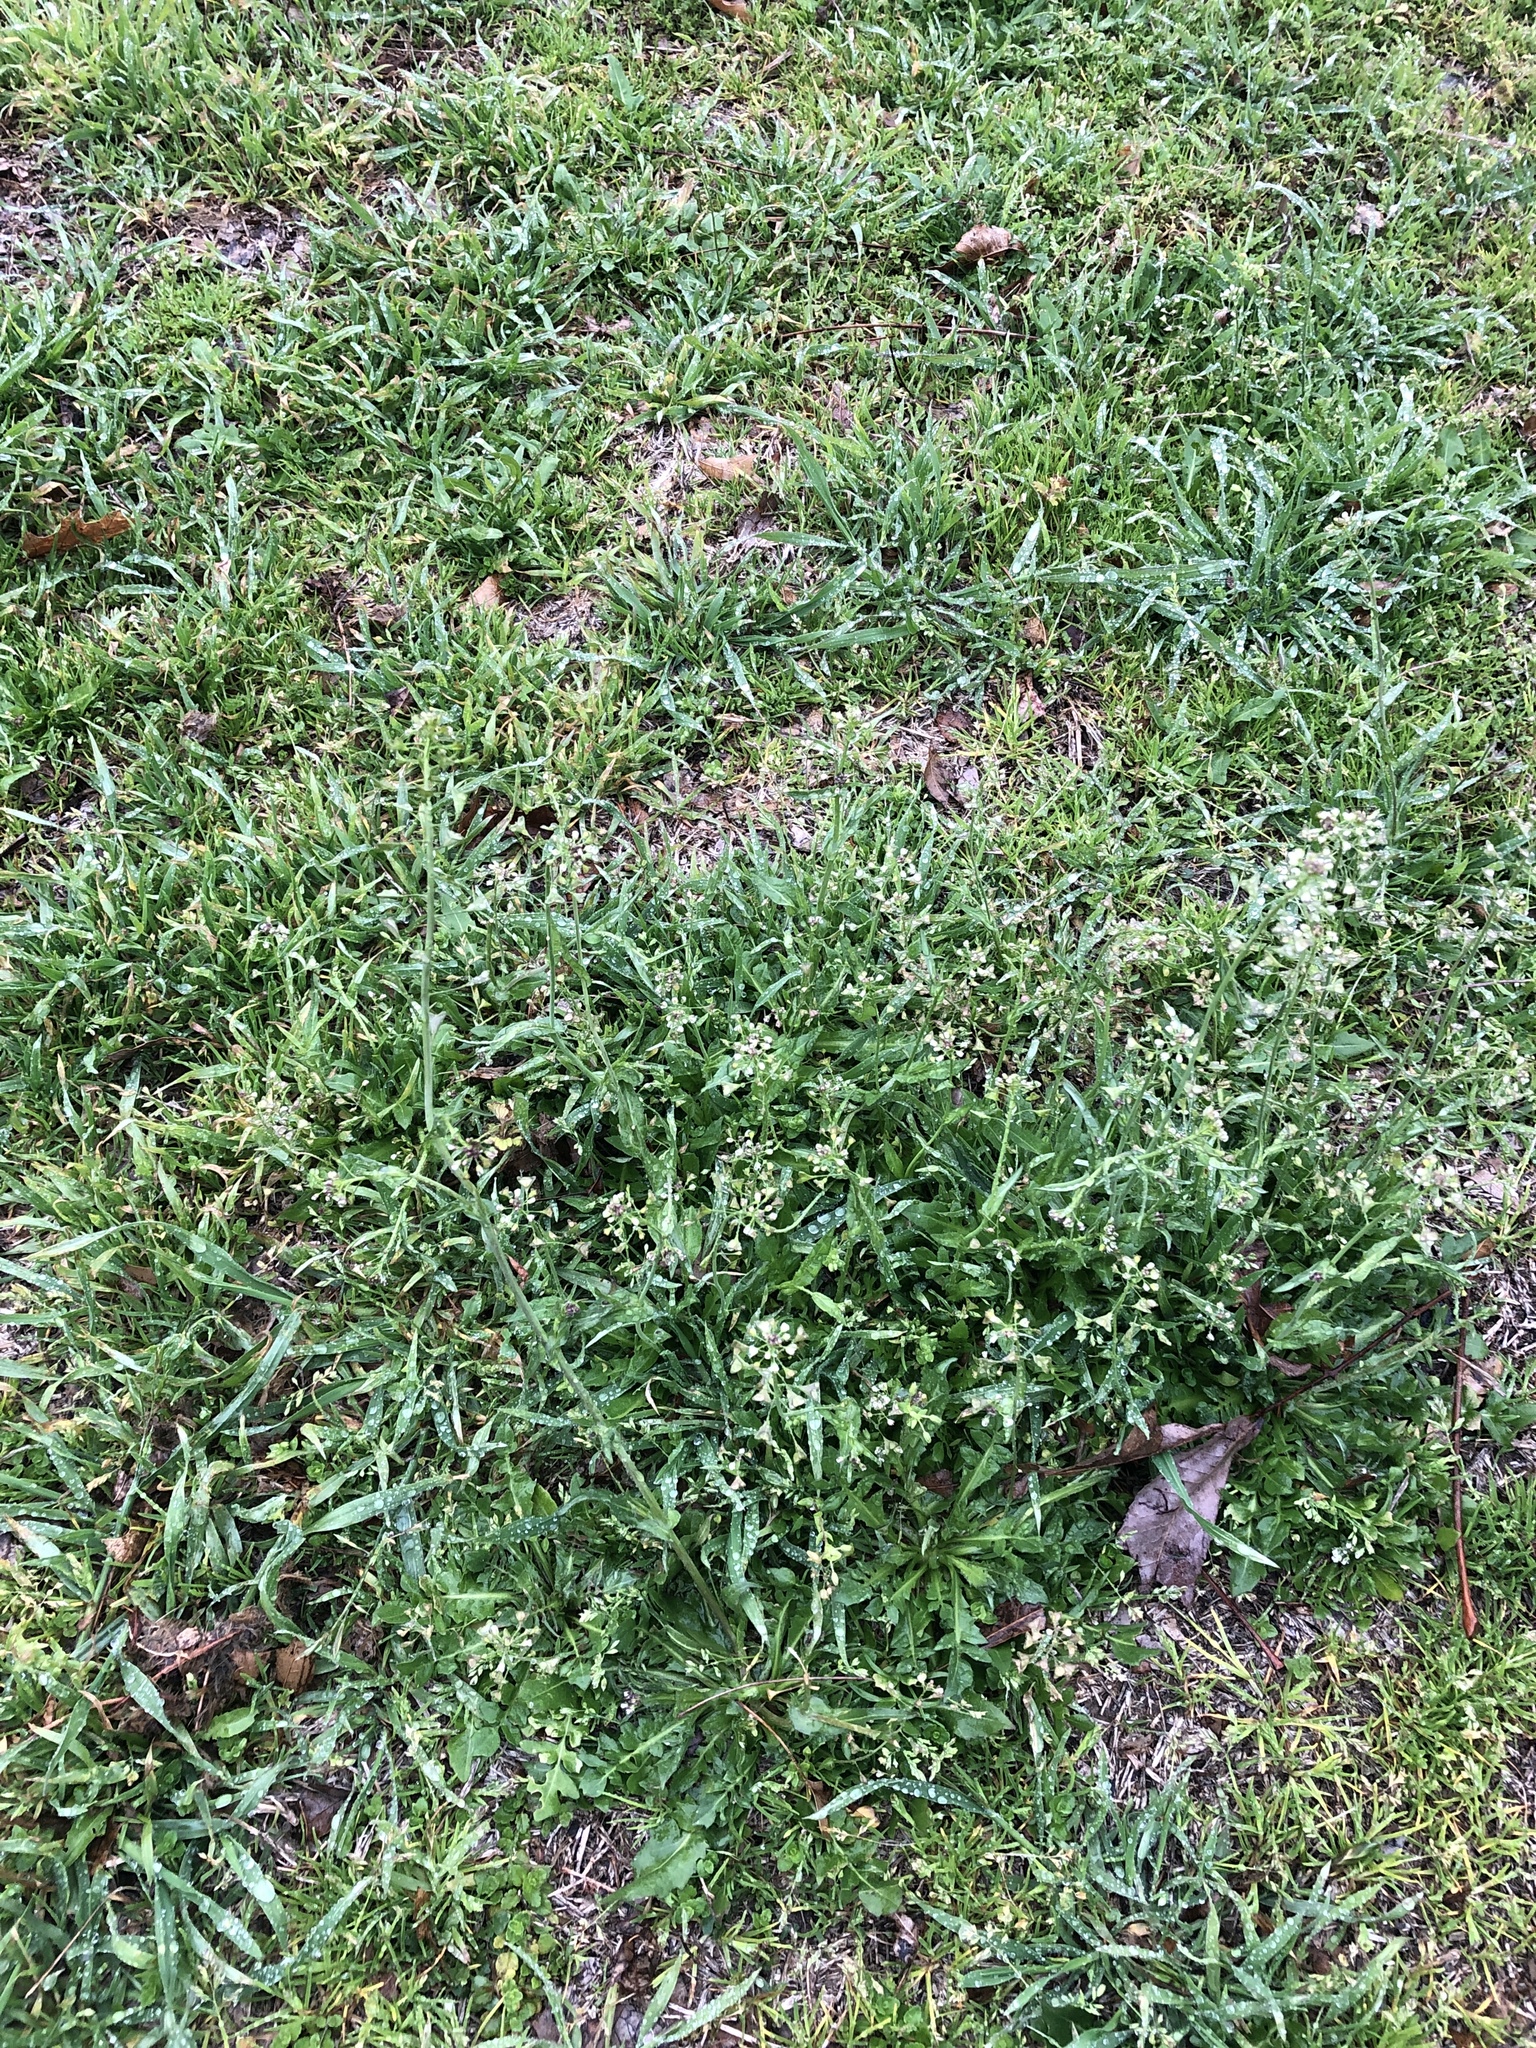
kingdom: Plantae
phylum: Tracheophyta
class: Magnoliopsida
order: Brassicales
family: Brassicaceae
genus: Capsella
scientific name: Capsella bursa-pastoris
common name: Shepherd's purse
